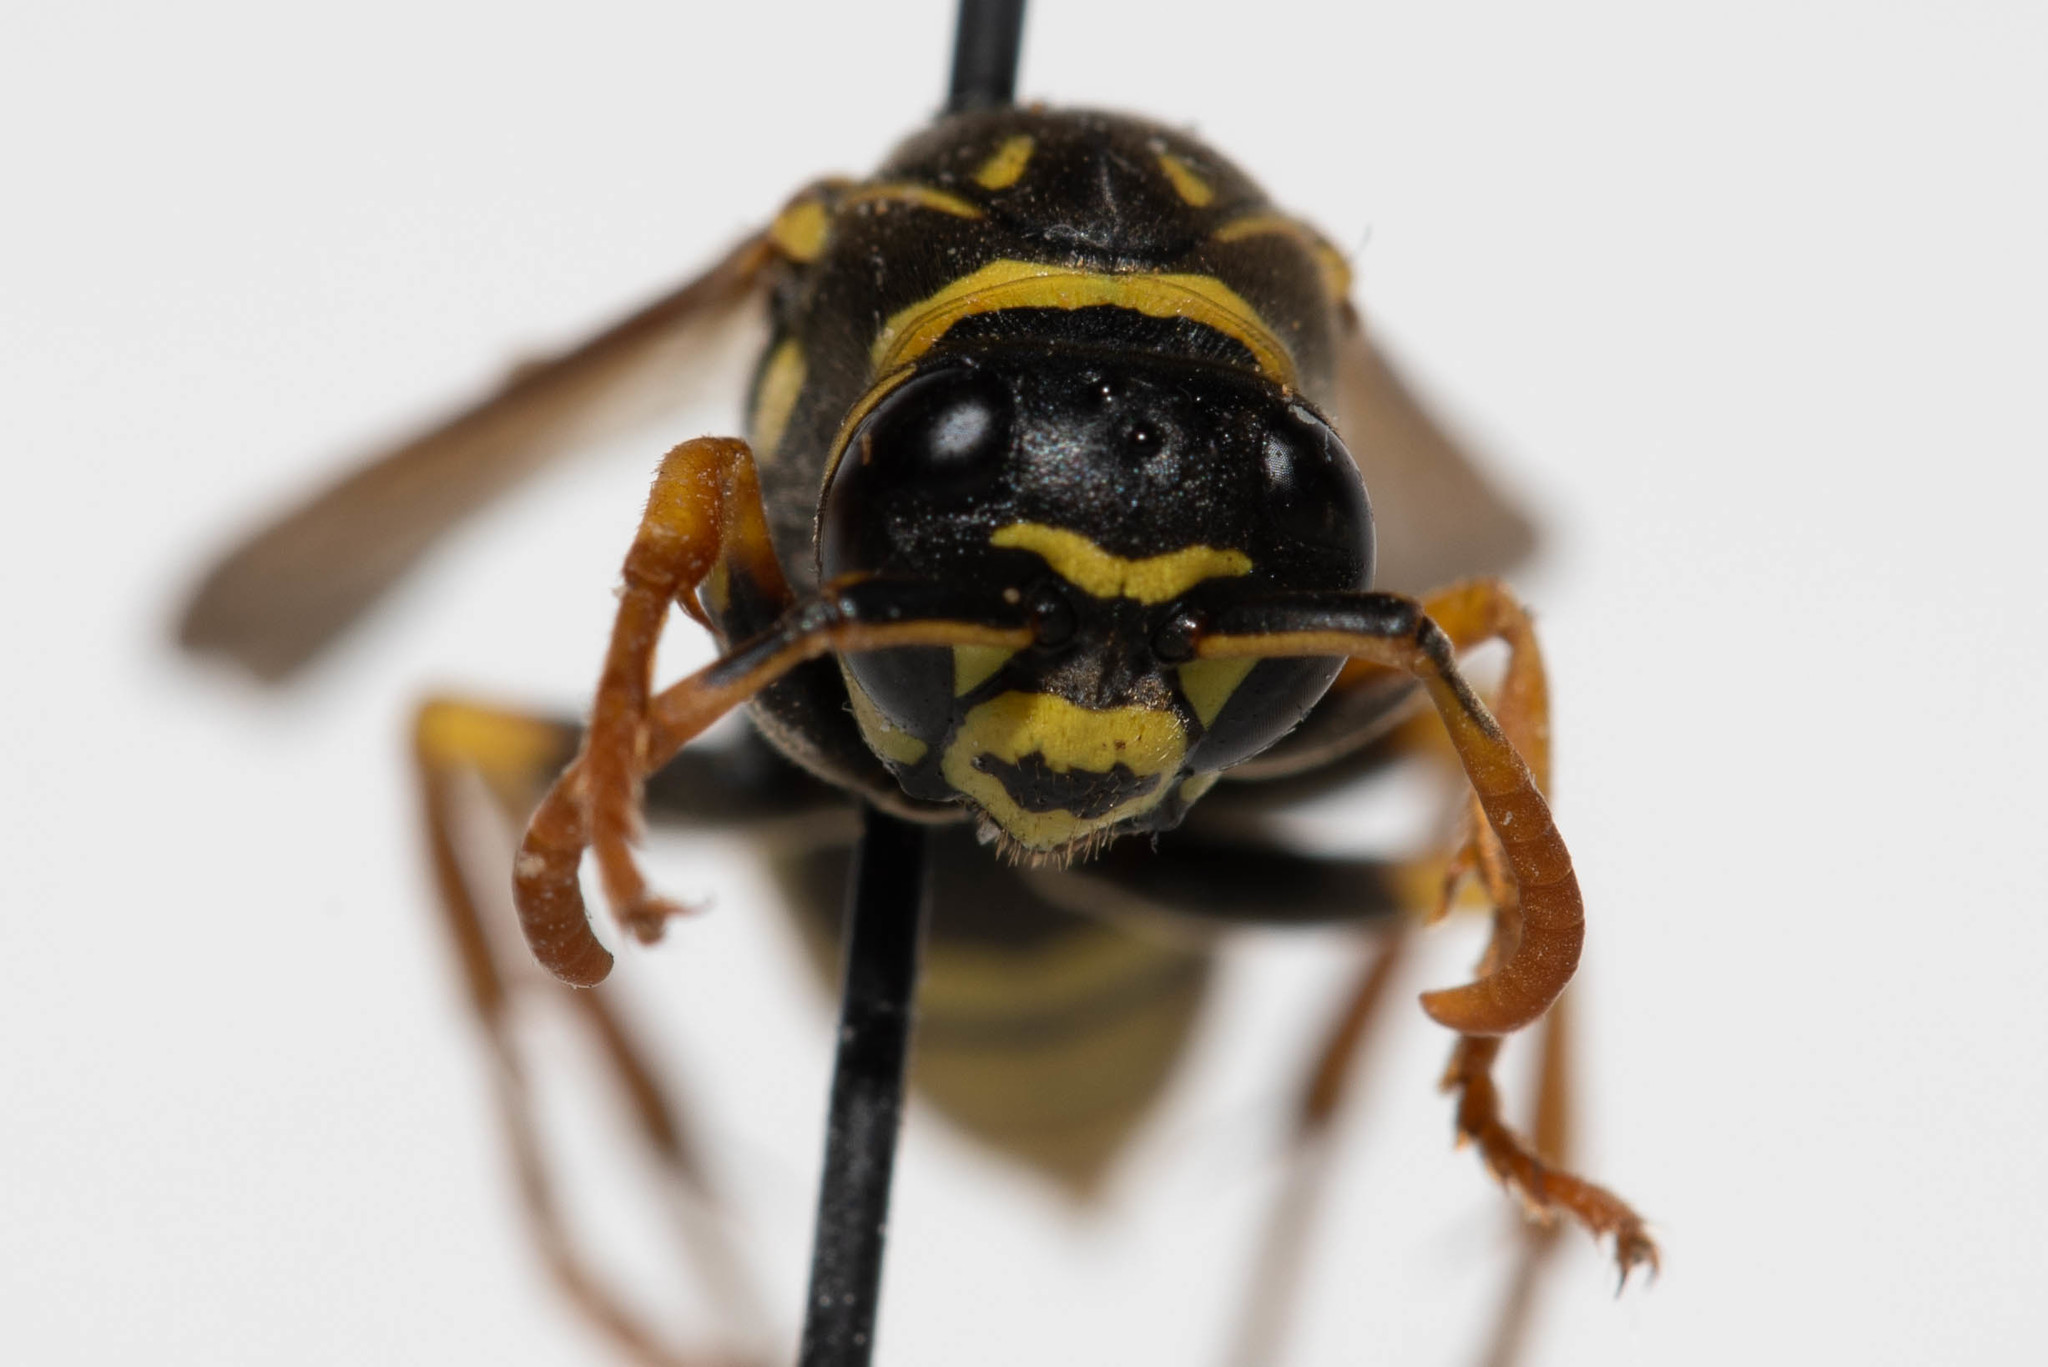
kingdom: Animalia
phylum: Arthropoda
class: Insecta
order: Hymenoptera
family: Eumenidae
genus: Polistes
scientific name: Polistes dominula
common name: Paper wasp
